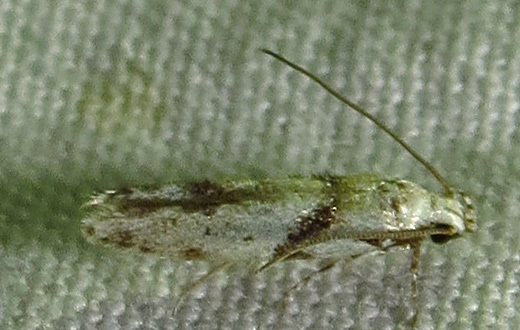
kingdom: Animalia
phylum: Arthropoda
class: Insecta
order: Lepidoptera
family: Gelechiidae
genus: Arogalea
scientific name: Arogalea cristifasciella
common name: White stripe-backed moth
